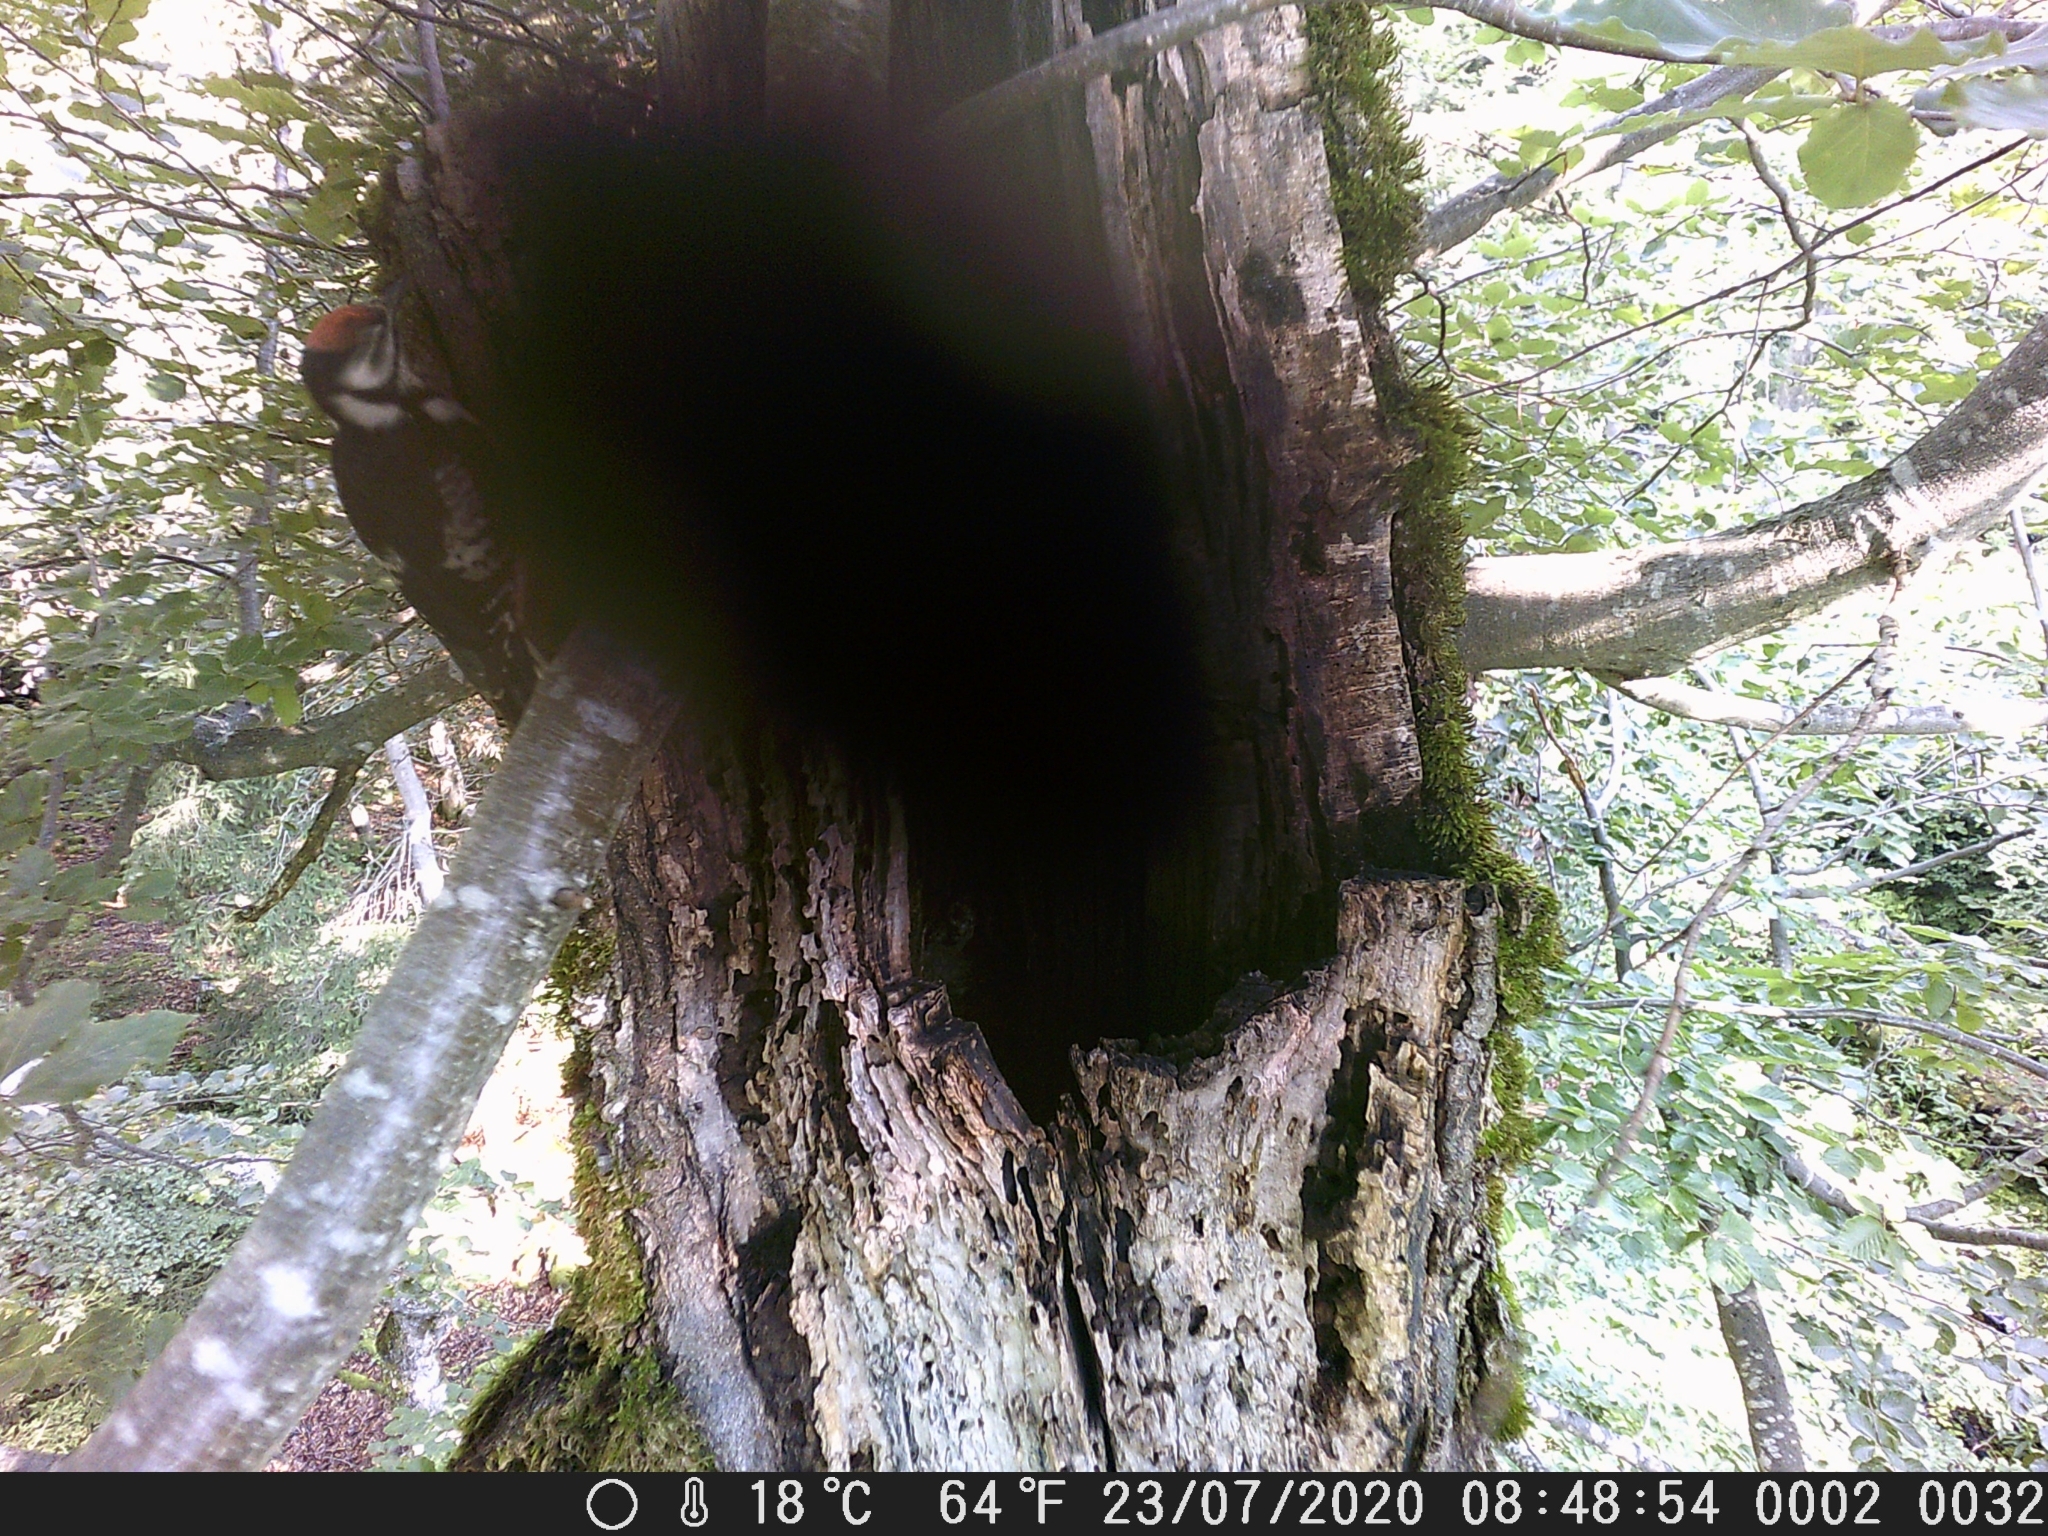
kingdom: Animalia
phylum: Chordata
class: Aves
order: Piciformes
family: Picidae
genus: Dendrocopos
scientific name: Dendrocopos major
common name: Great spotted woodpecker
